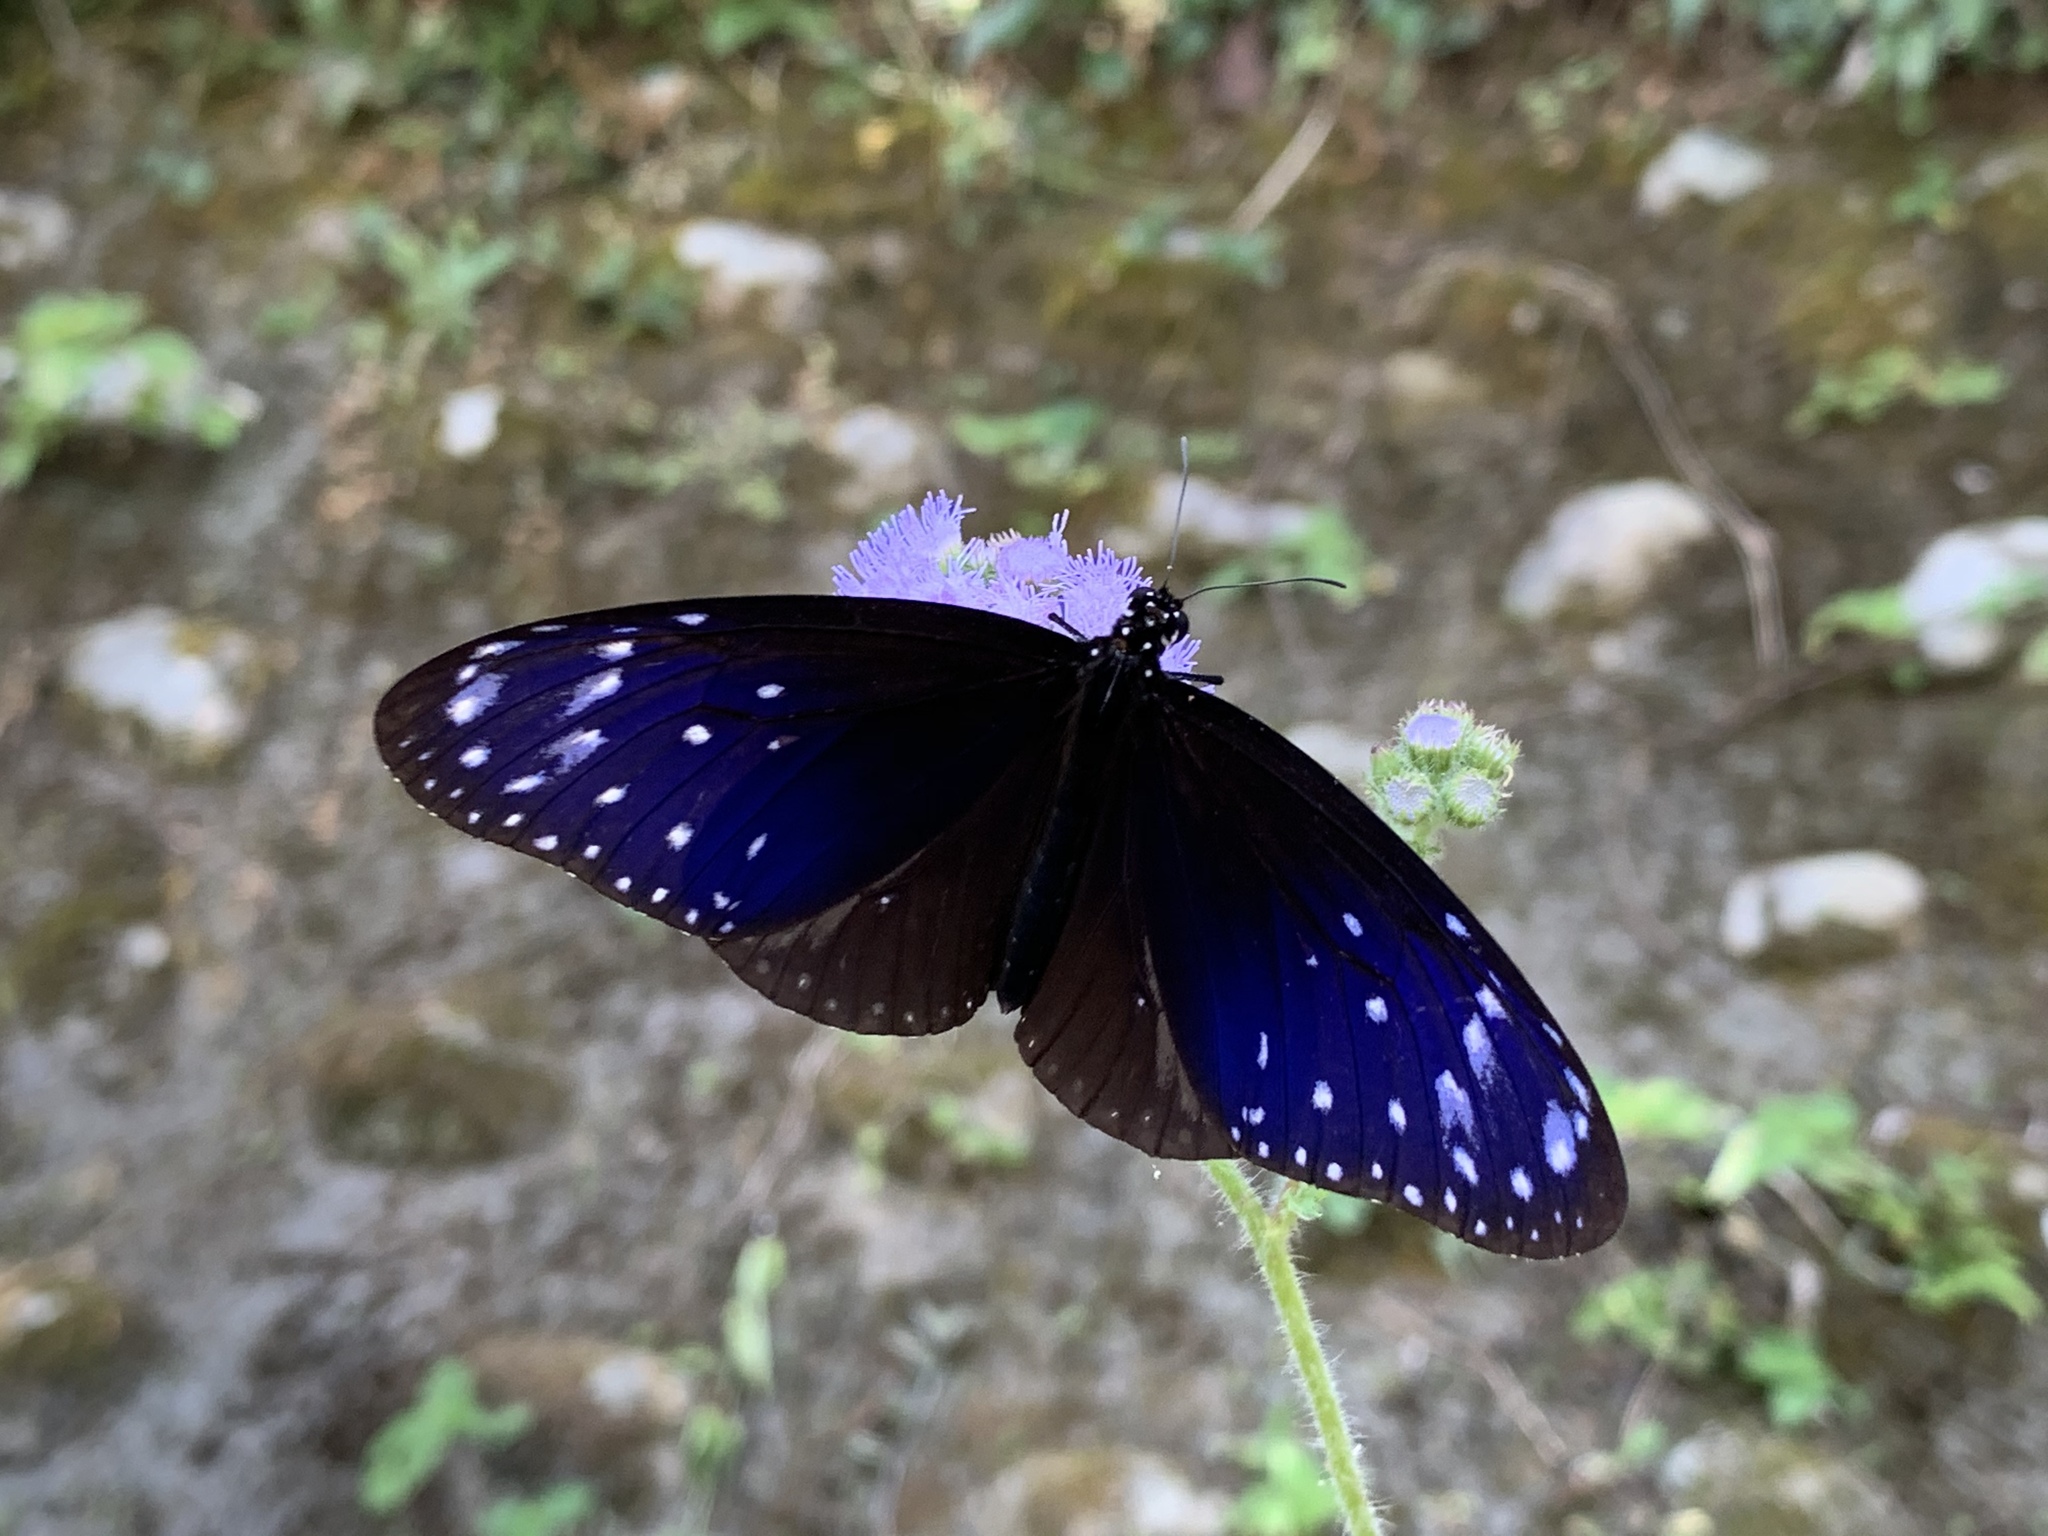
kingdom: Animalia
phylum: Arthropoda
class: Insecta
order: Lepidoptera
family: Nymphalidae
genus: Euploea
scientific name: Euploea mulciber
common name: Striped blue crow butterfly
